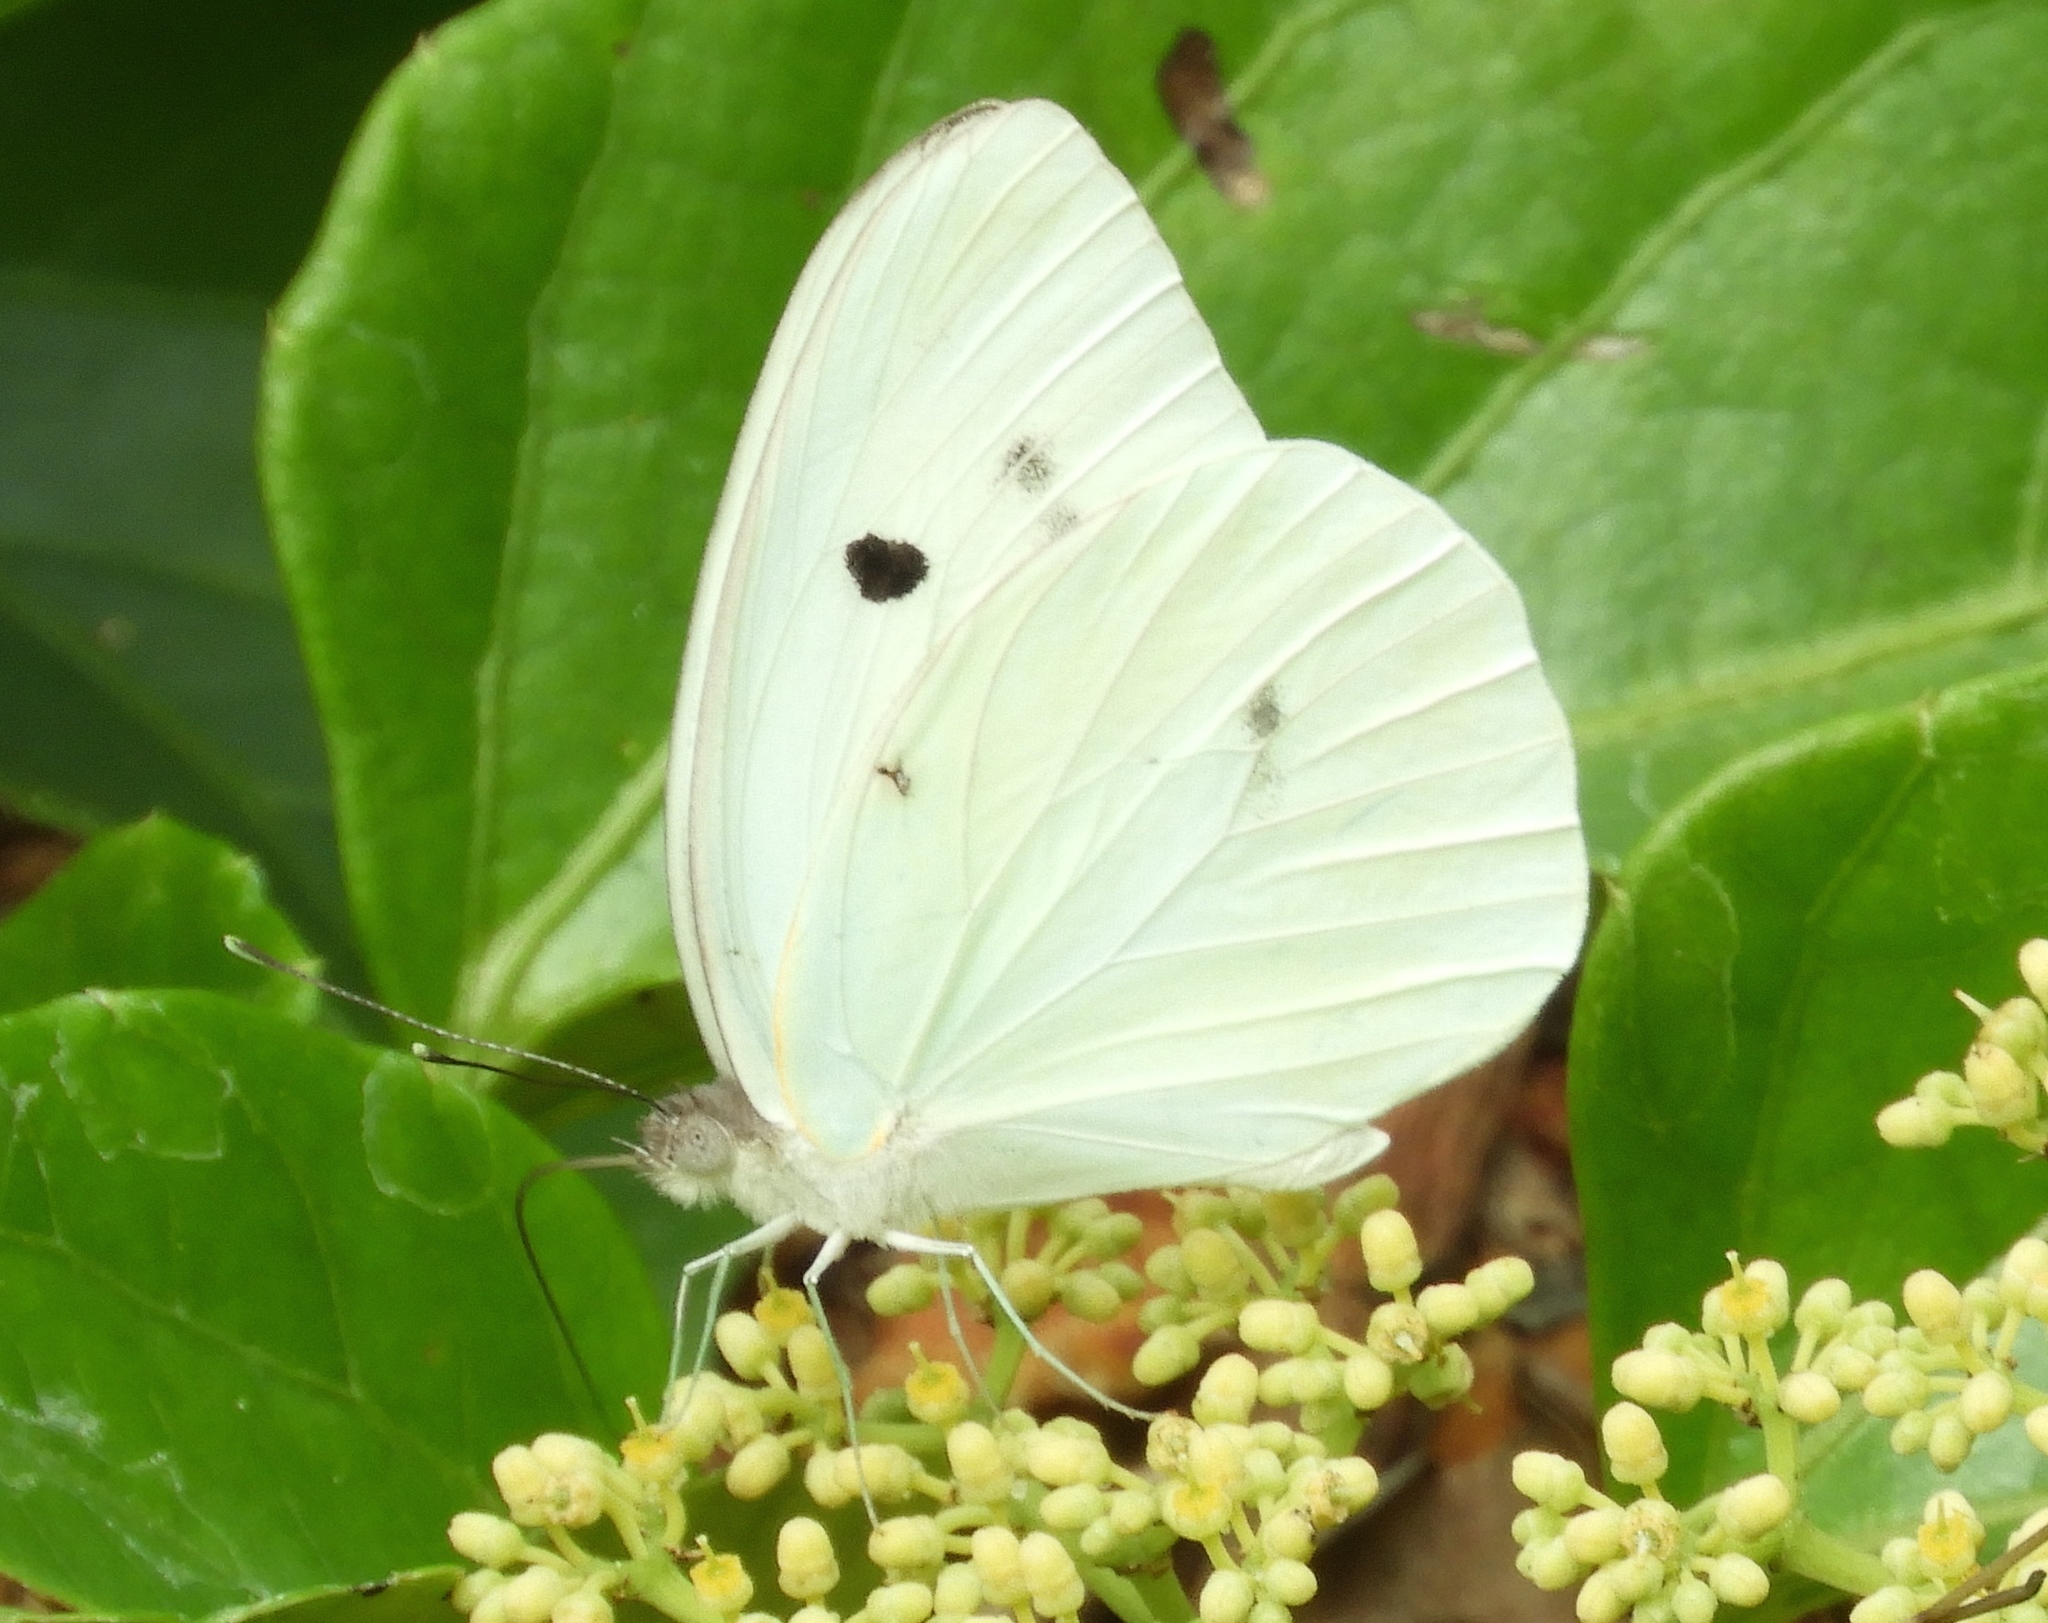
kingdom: Animalia
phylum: Arthropoda
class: Insecta
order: Lepidoptera
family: Pieridae
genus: Ganyra
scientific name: Ganyra josephina
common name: Giant white
